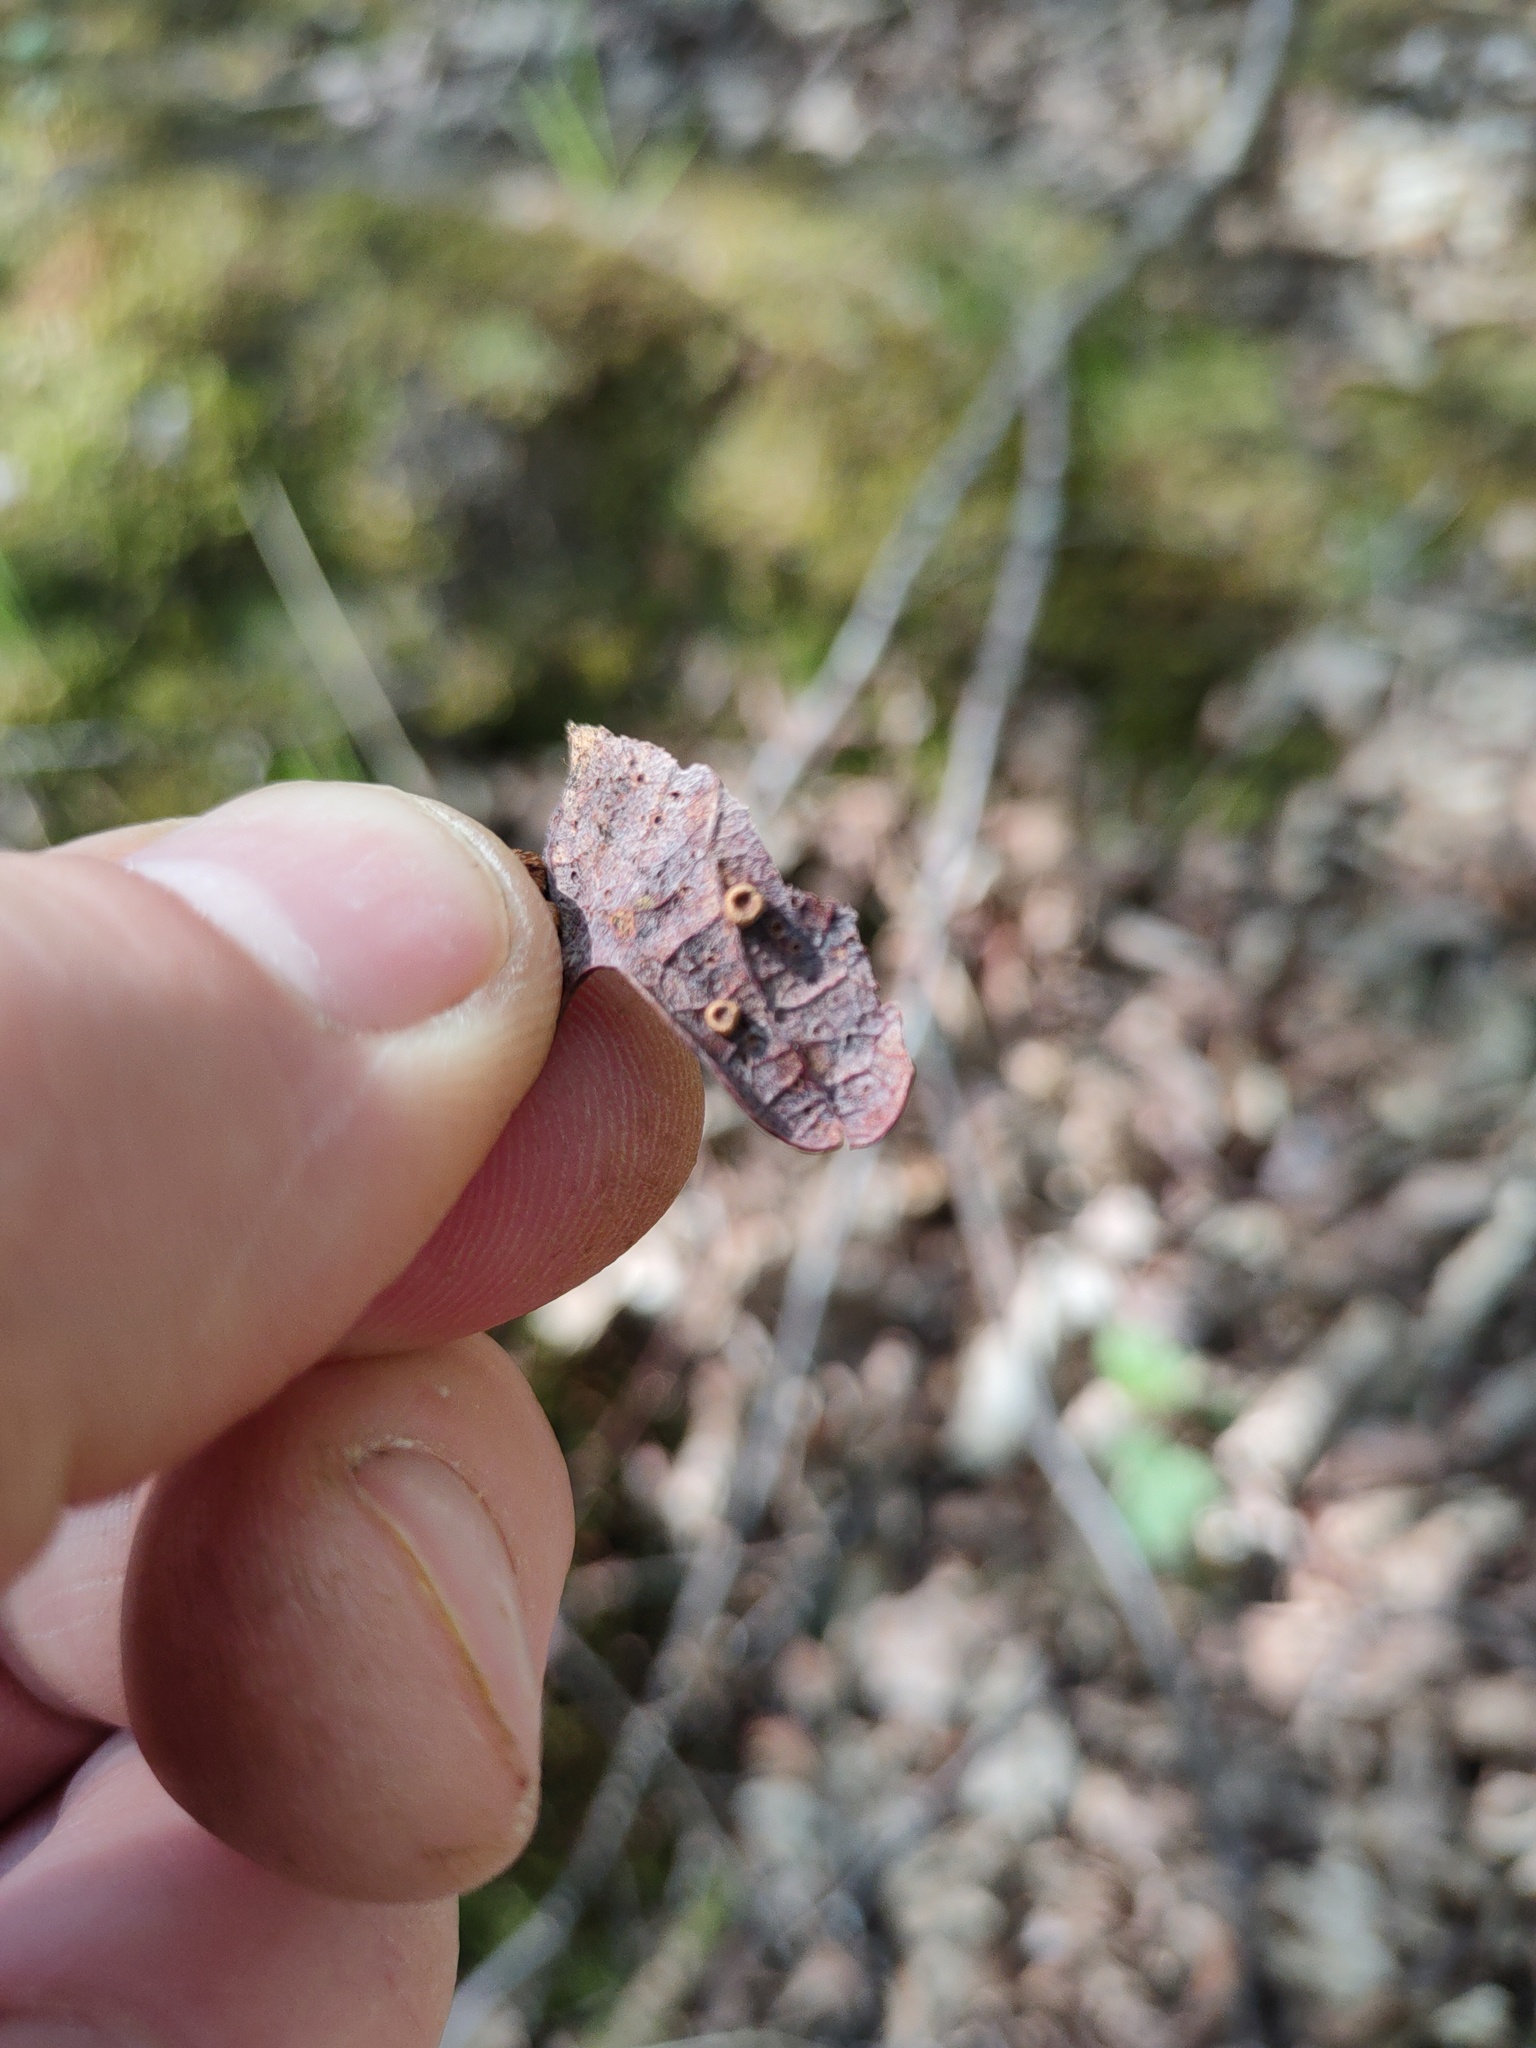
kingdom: Animalia
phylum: Arthropoda
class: Insecta
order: Hymenoptera
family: Cynipidae
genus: Neuroterus
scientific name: Neuroterus numismalis
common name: Silk-button spangle gall
